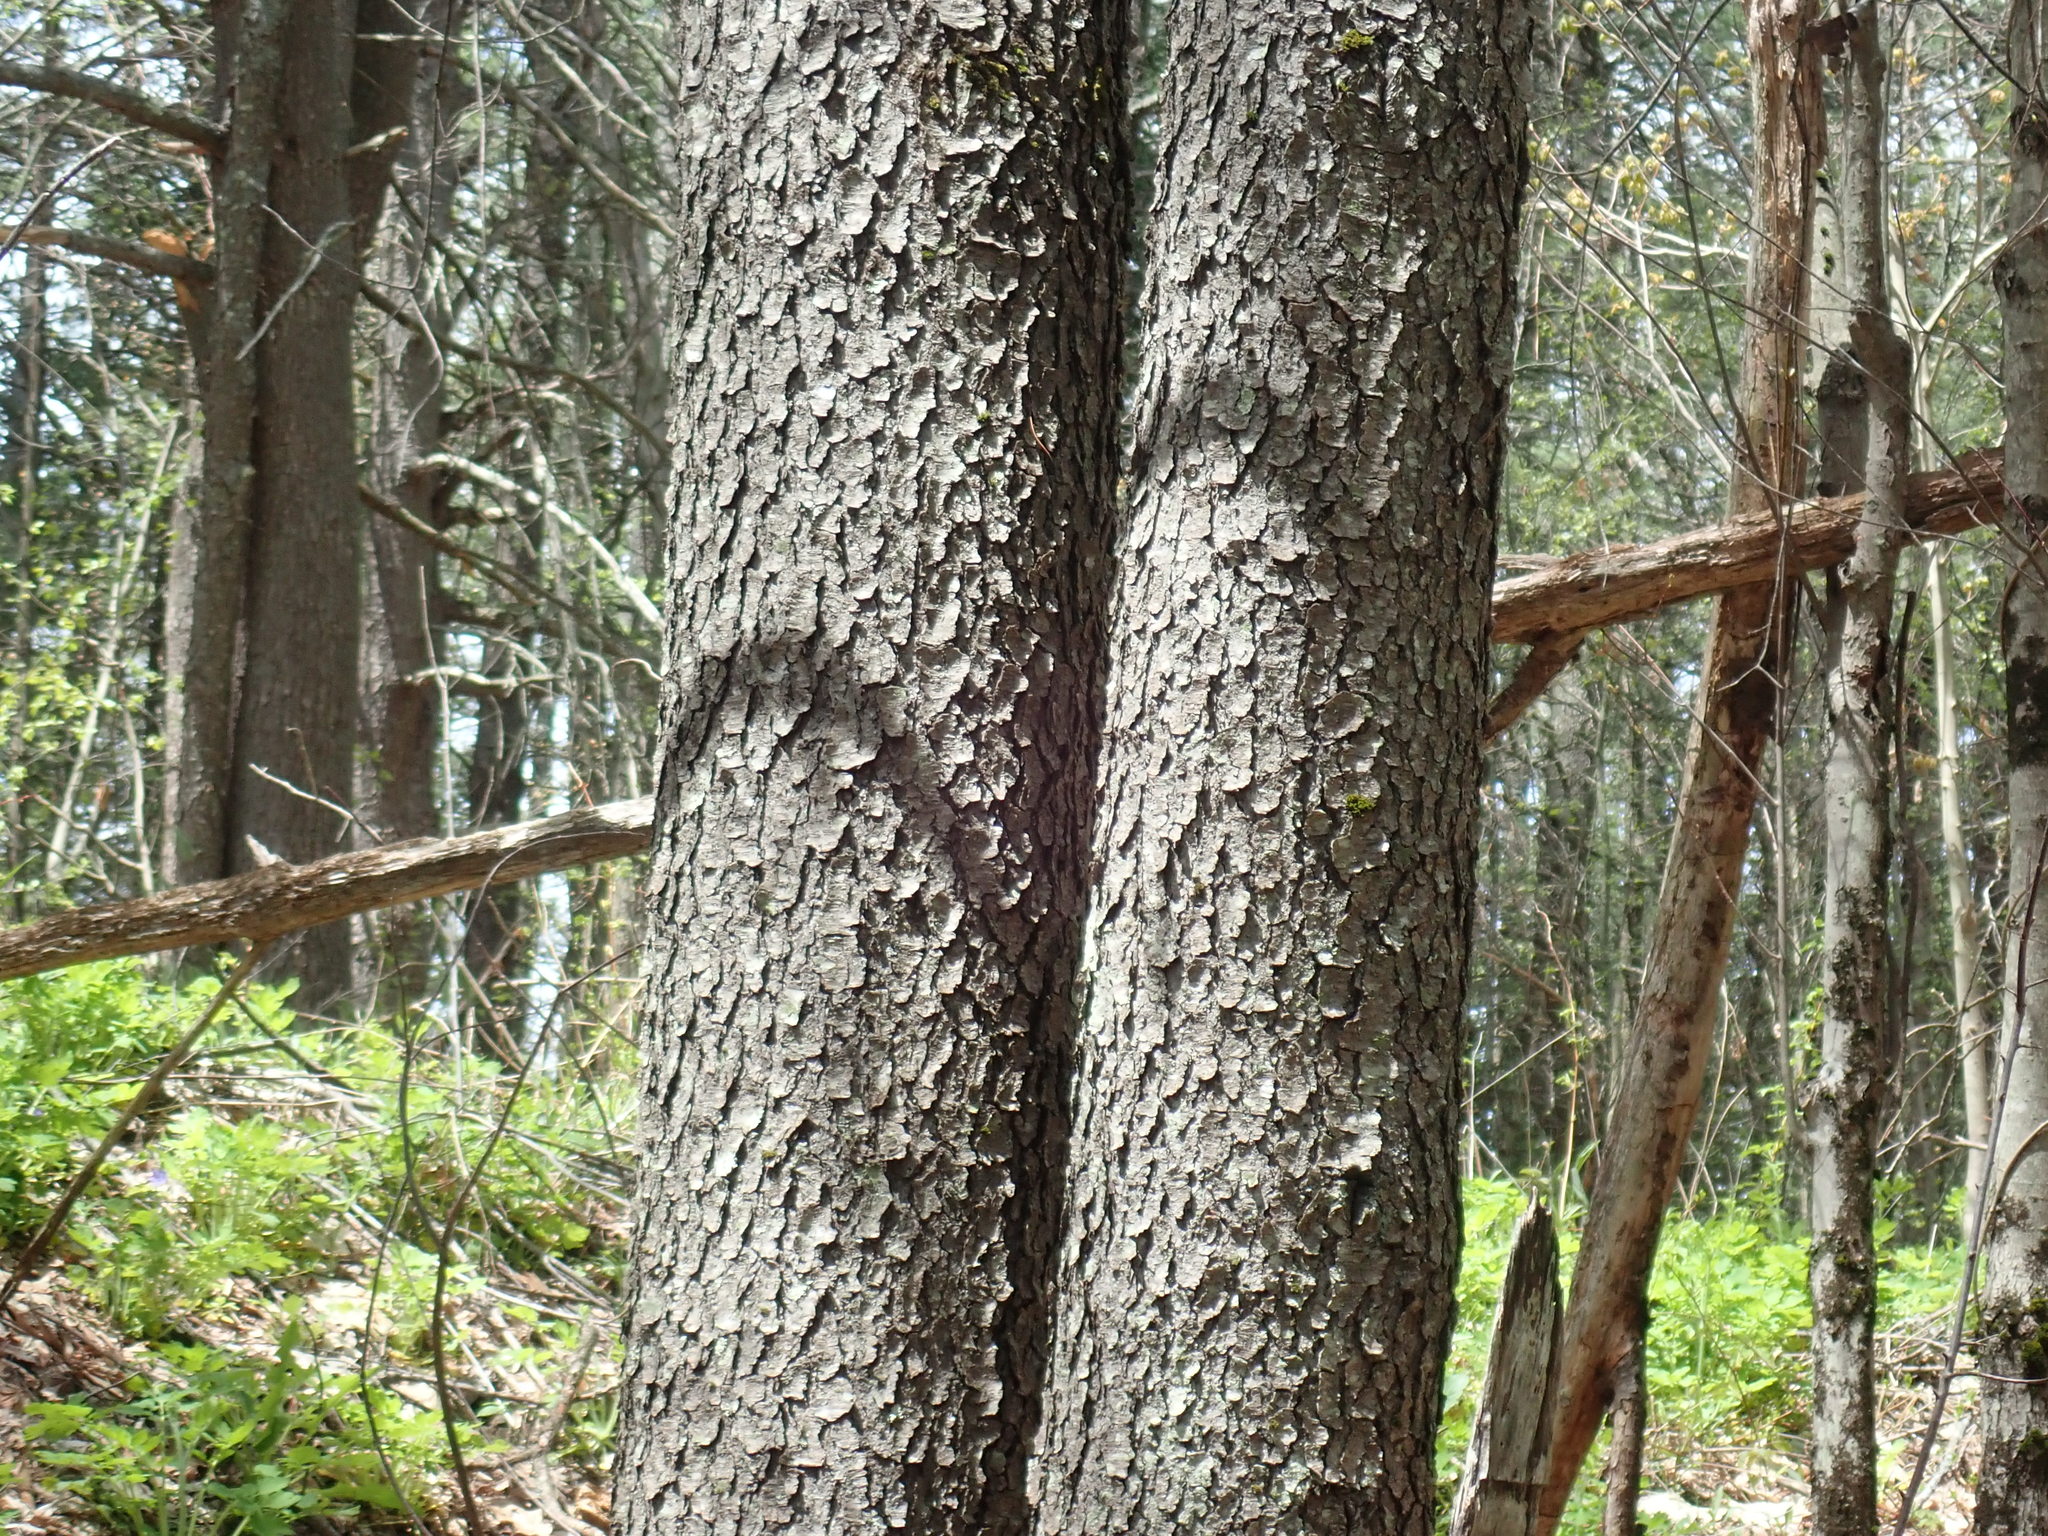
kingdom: Plantae
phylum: Tracheophyta
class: Magnoliopsida
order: Rosales
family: Rosaceae
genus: Prunus
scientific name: Prunus serotina
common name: Black cherry
